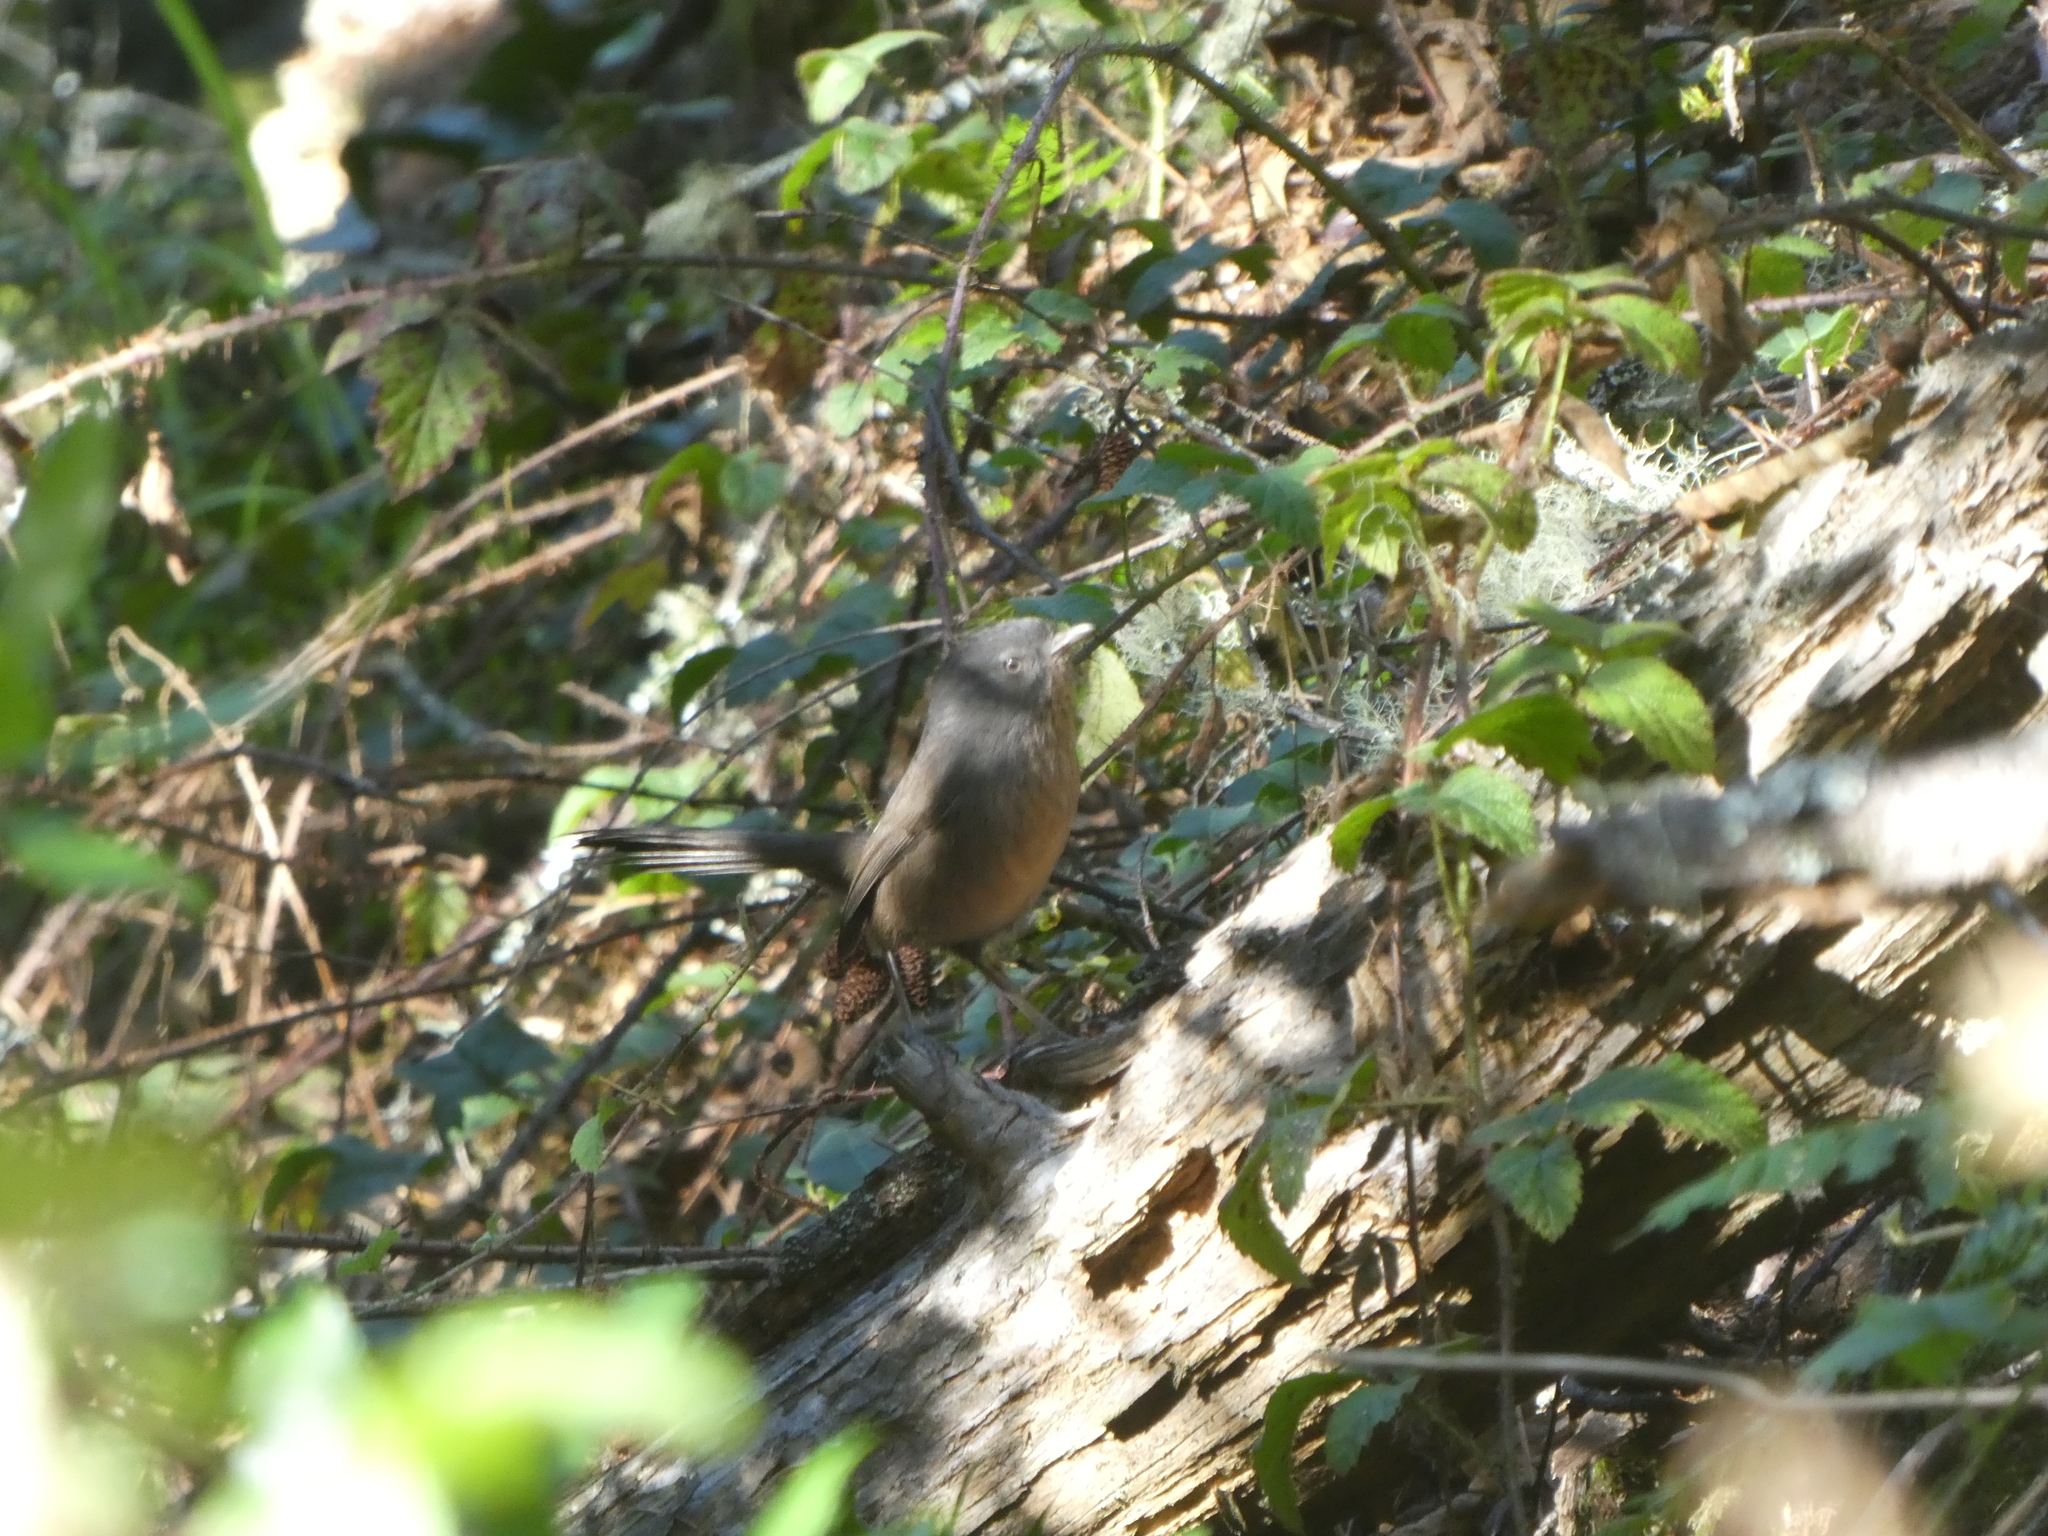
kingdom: Animalia
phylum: Chordata
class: Aves
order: Passeriformes
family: Sylviidae
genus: Chamaea
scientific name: Chamaea fasciata
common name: Wrentit
